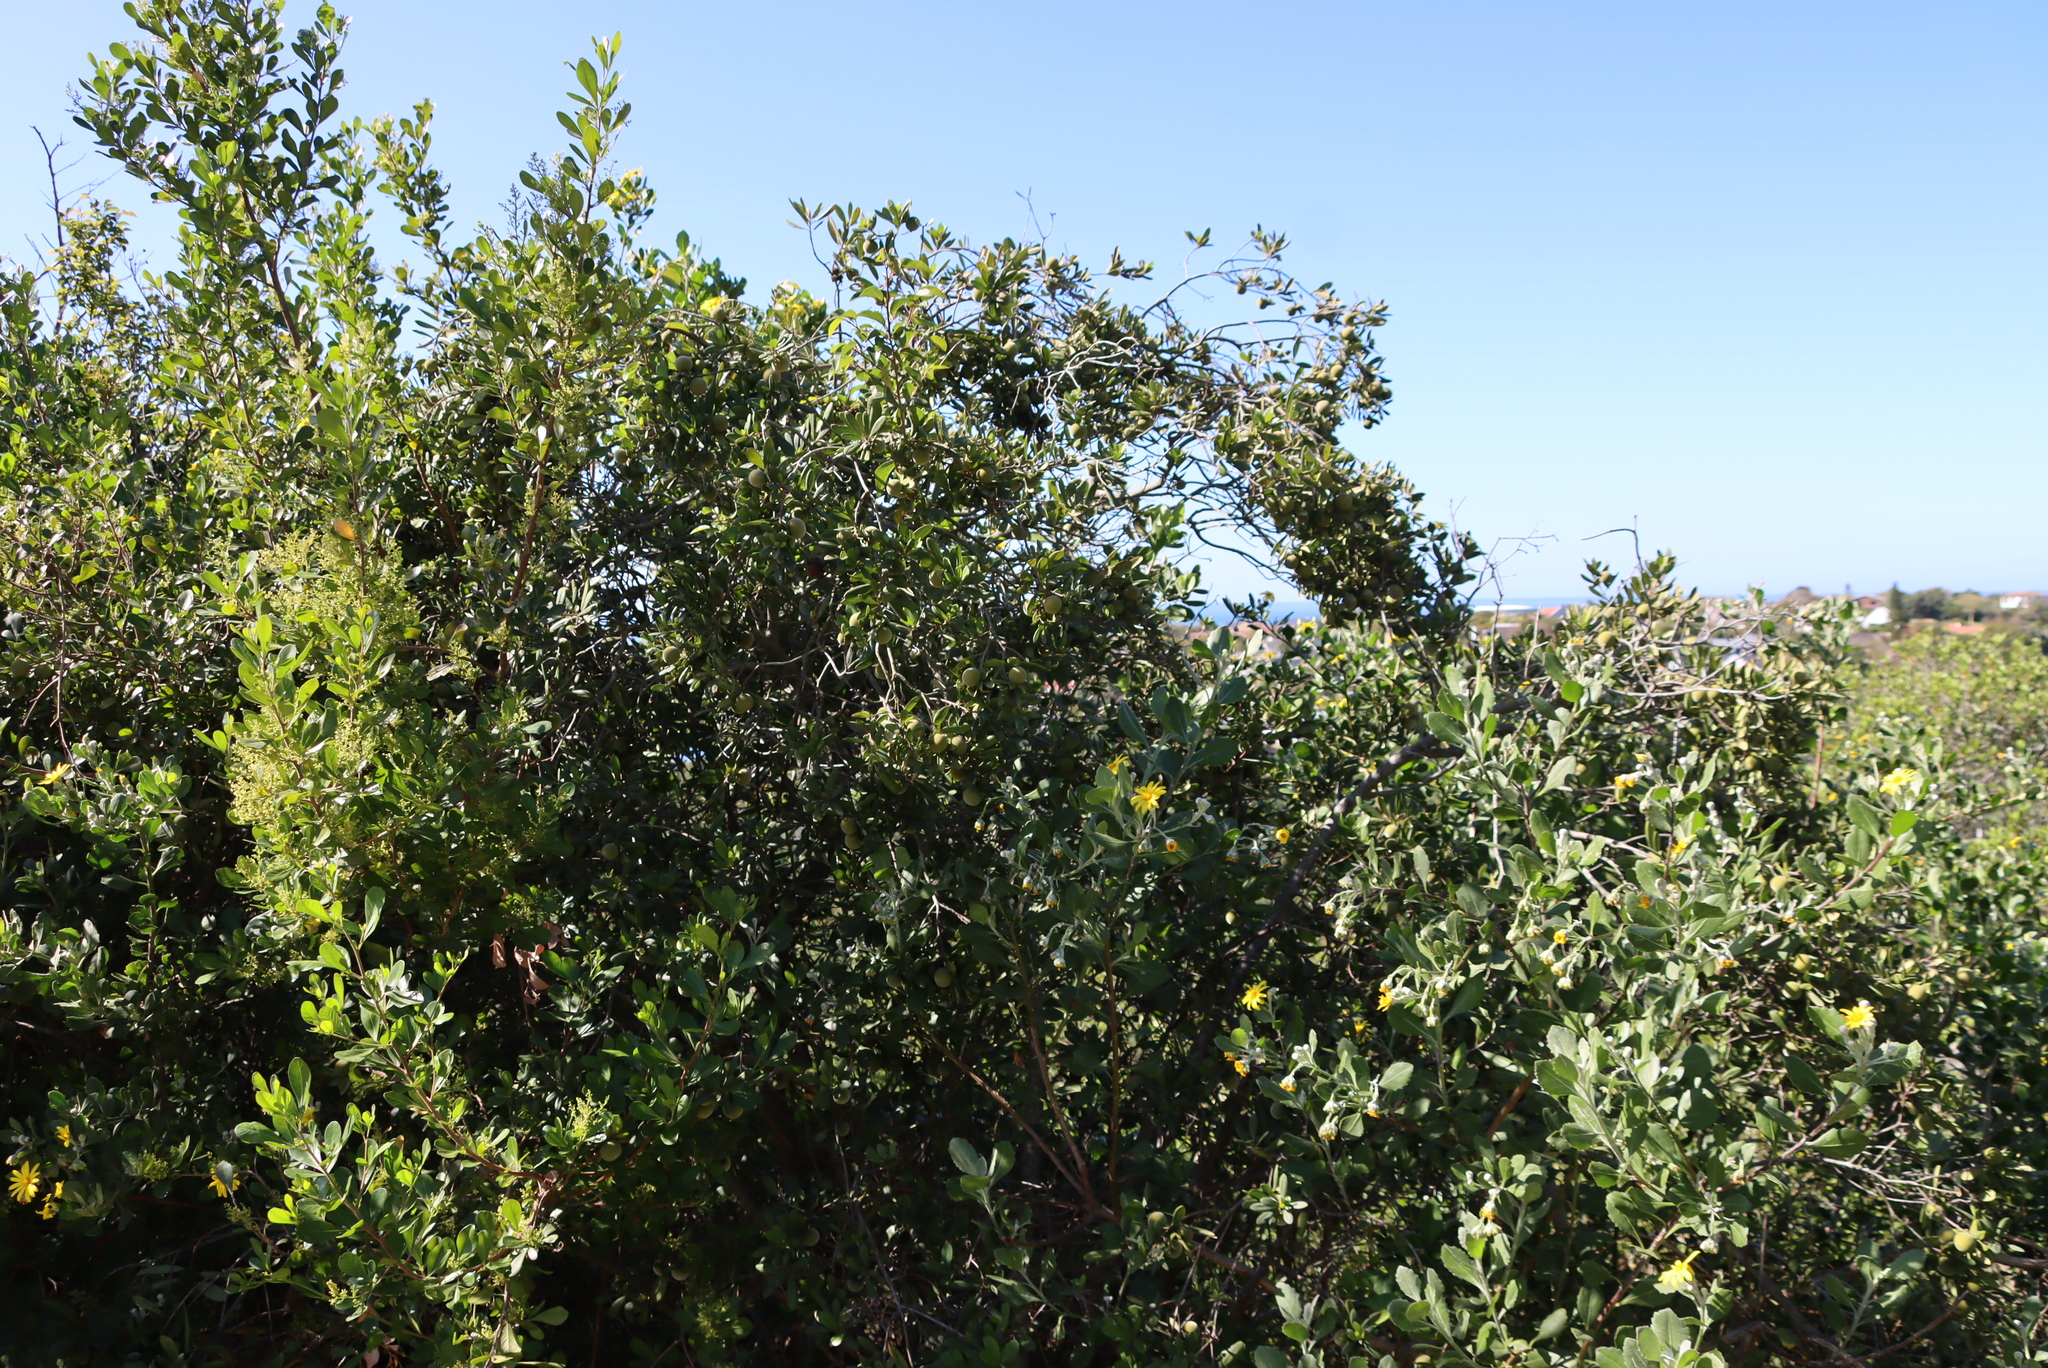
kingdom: Plantae
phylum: Tracheophyta
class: Magnoliopsida
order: Sapindales
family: Anacardiaceae
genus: Searsia
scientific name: Searsia lucida
